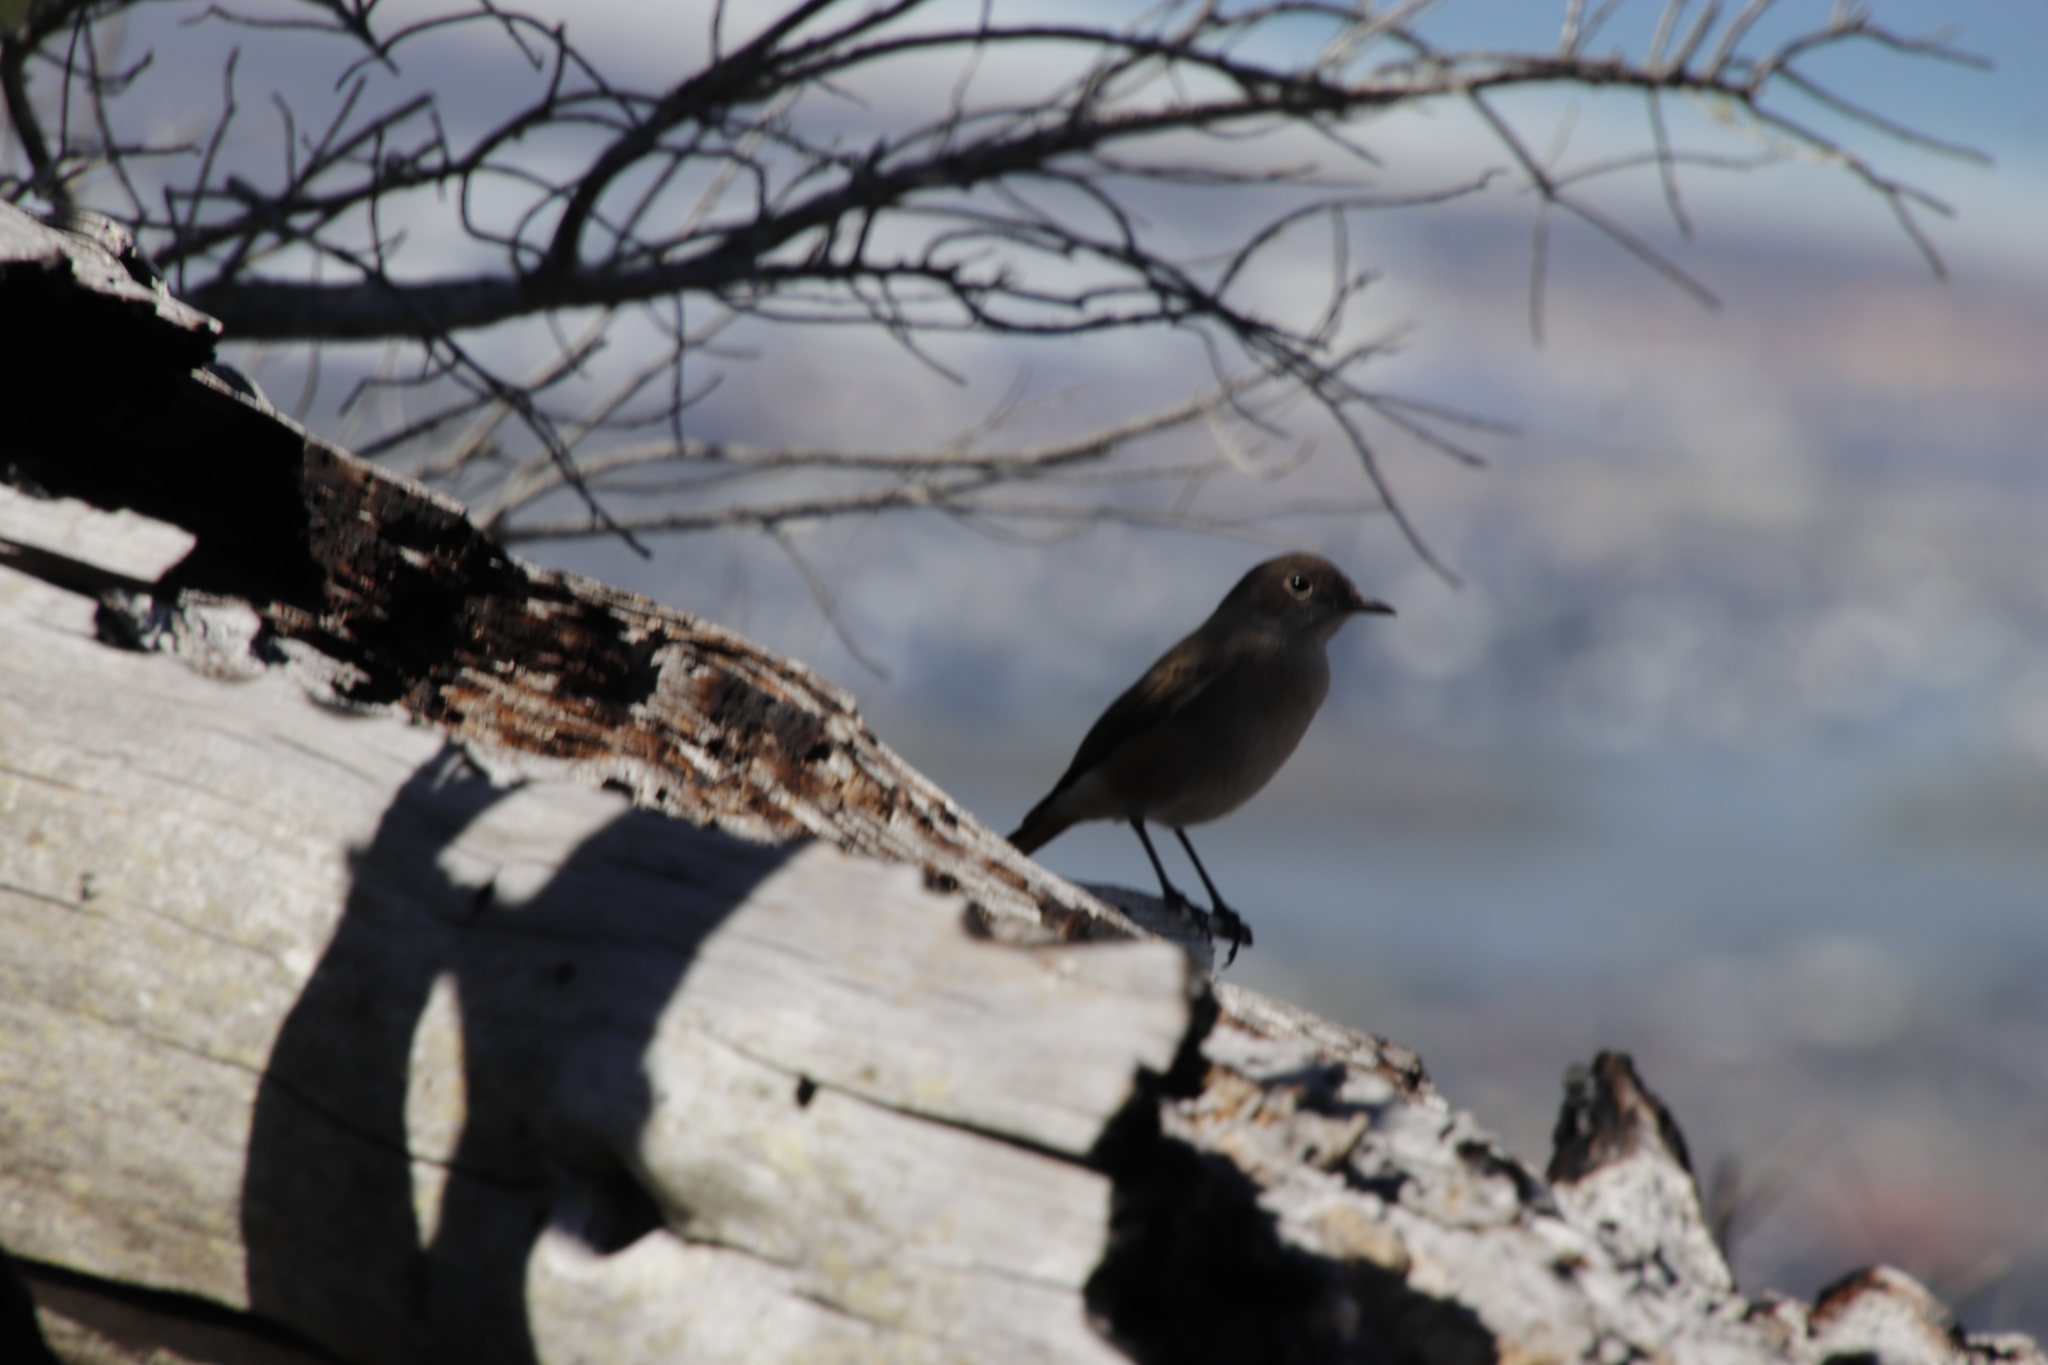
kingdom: Animalia
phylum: Chordata
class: Aves
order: Passeriformes
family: Muscicapidae
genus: Oenanthe
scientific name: Oenanthe familiaris
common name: Familiar chat
